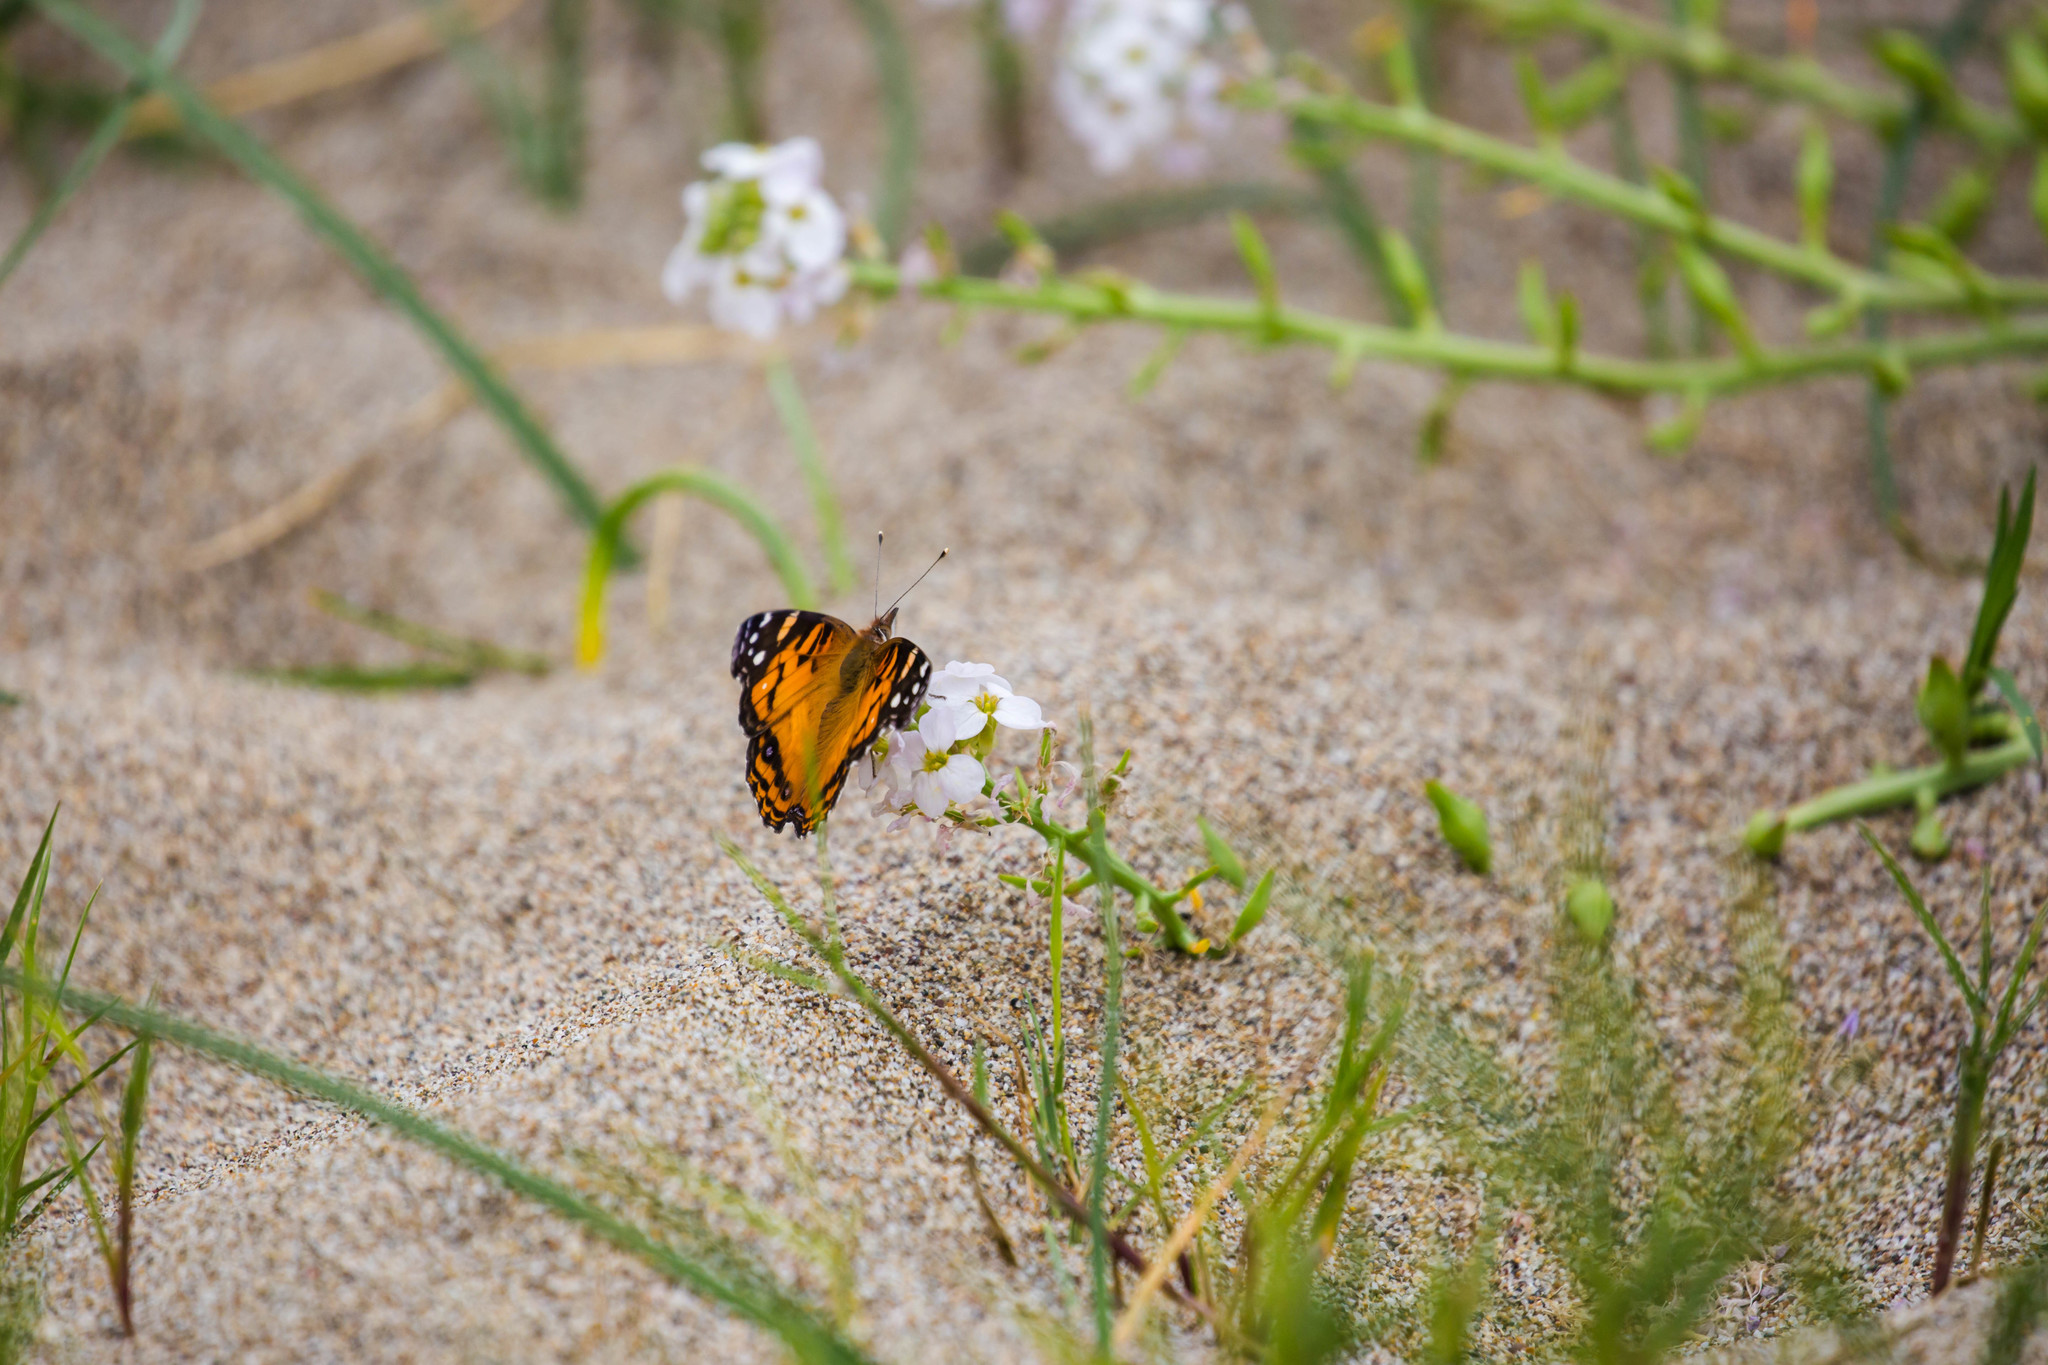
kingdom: Animalia
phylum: Arthropoda
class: Insecta
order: Lepidoptera
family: Nymphalidae
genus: Vanessa
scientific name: Vanessa virginiensis
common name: American lady
